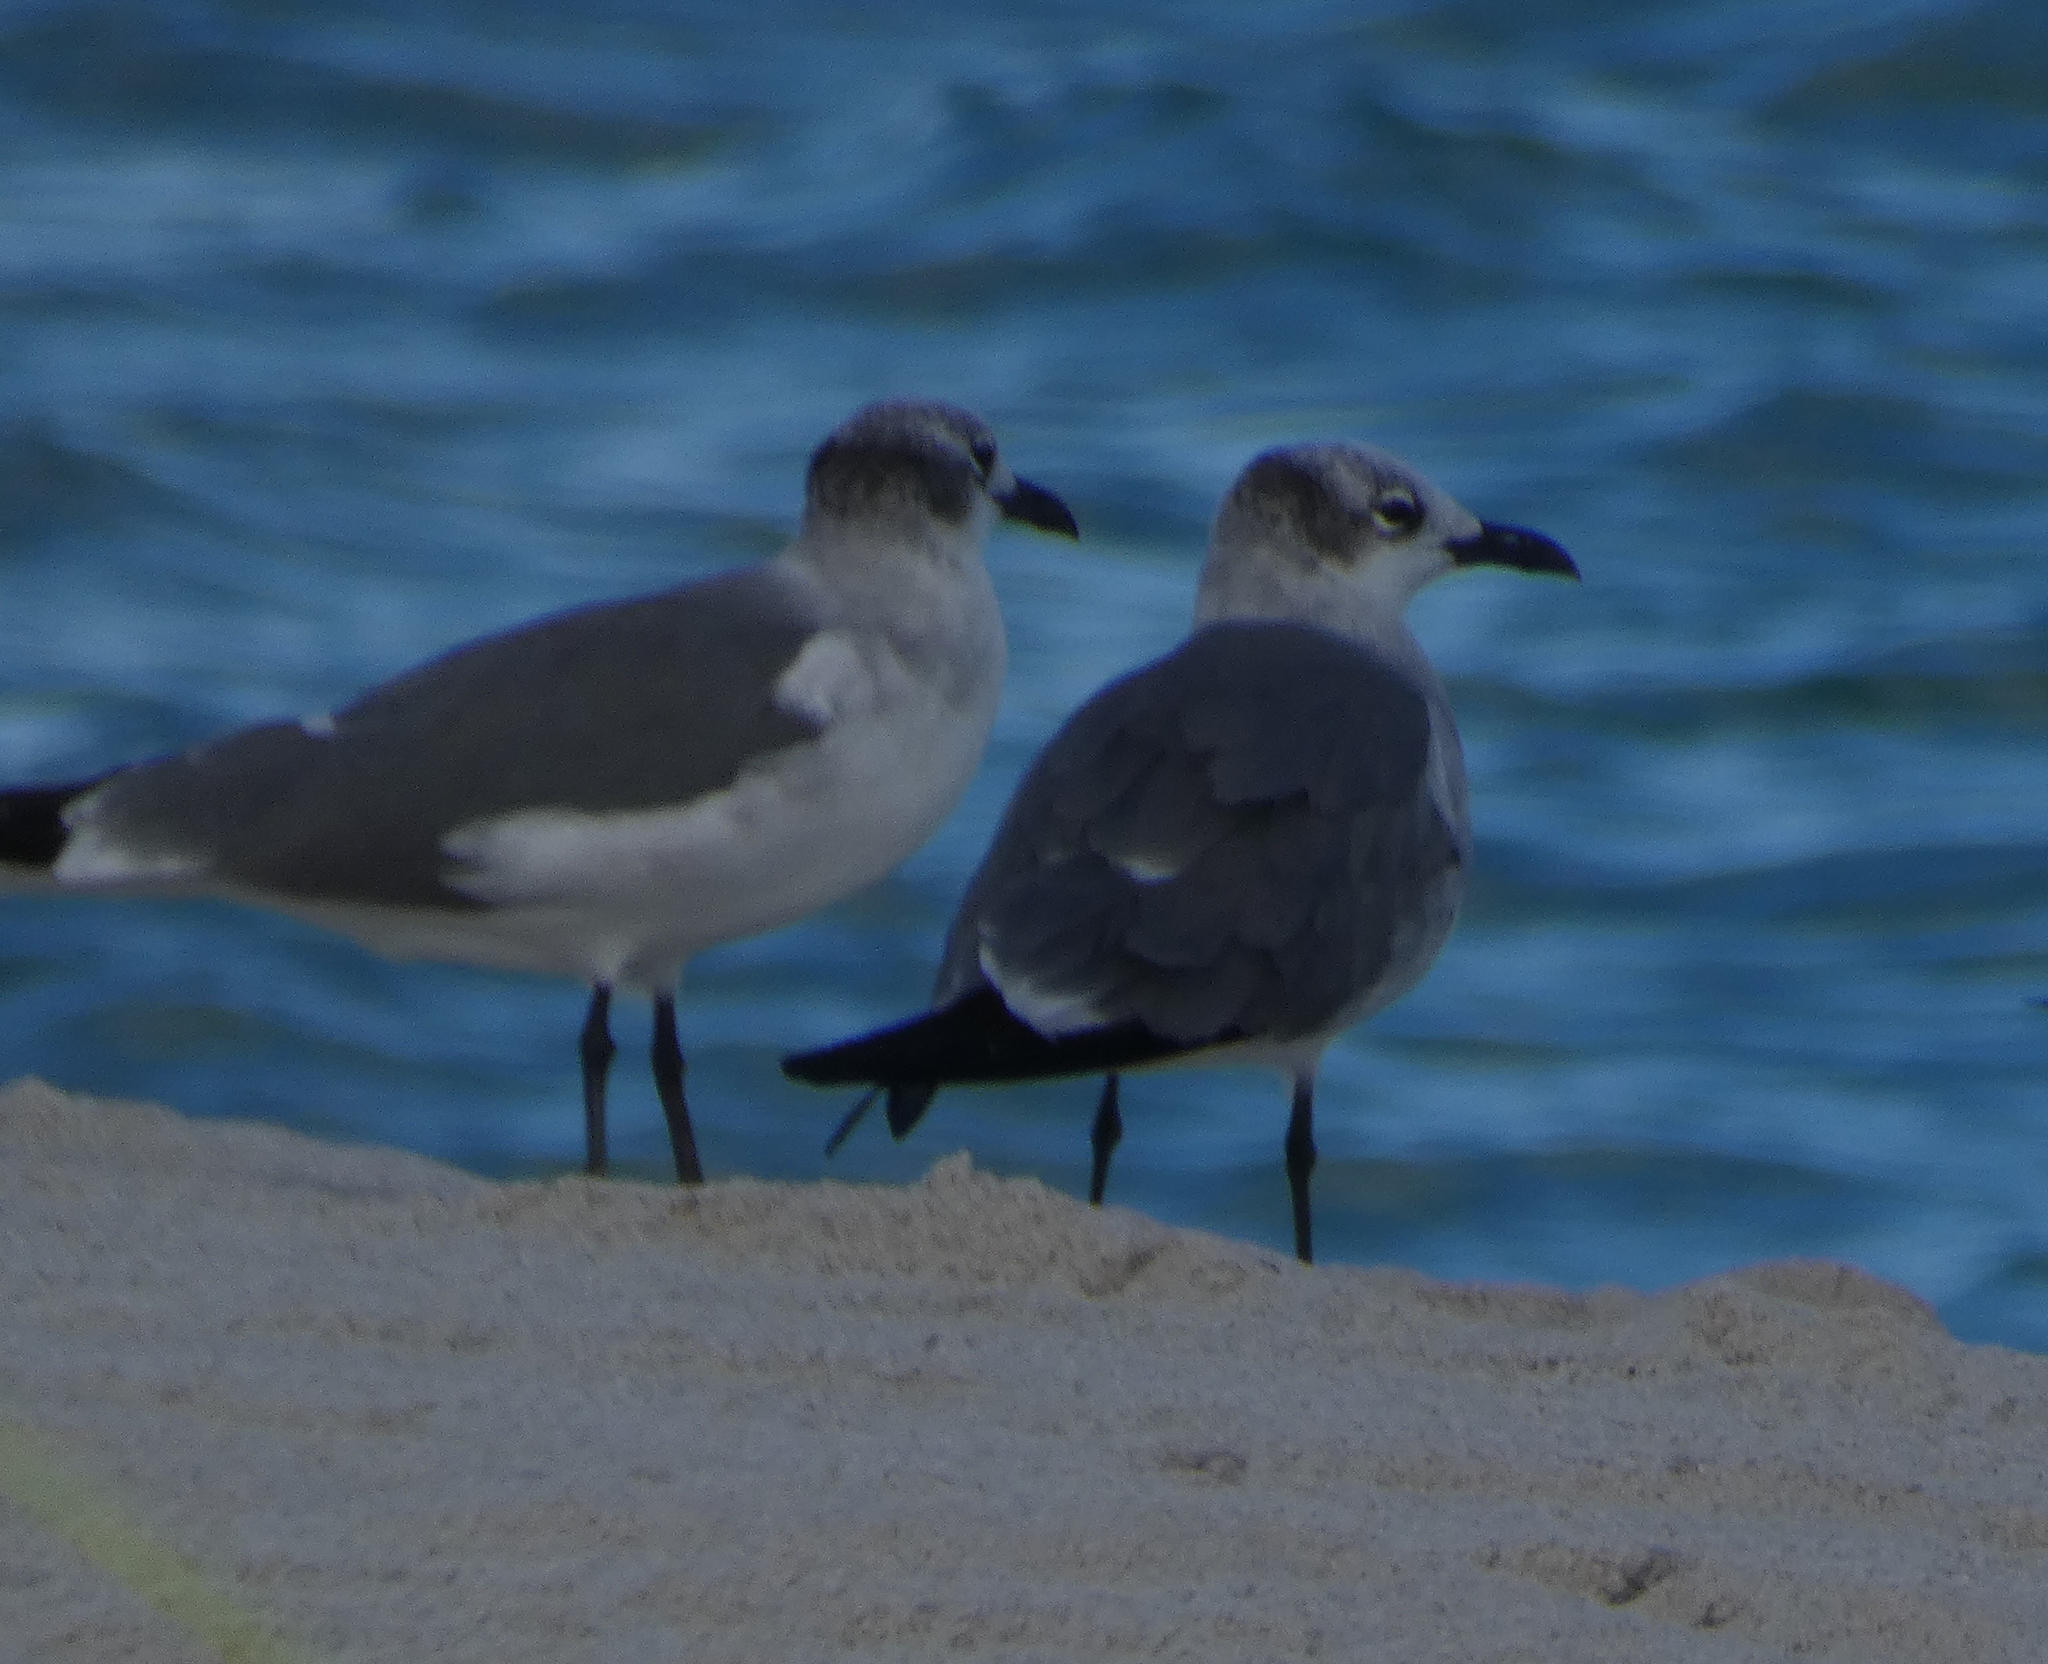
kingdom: Animalia
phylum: Chordata
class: Aves
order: Charadriiformes
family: Laridae
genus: Leucophaeus
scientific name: Leucophaeus atricilla
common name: Laughing gull
